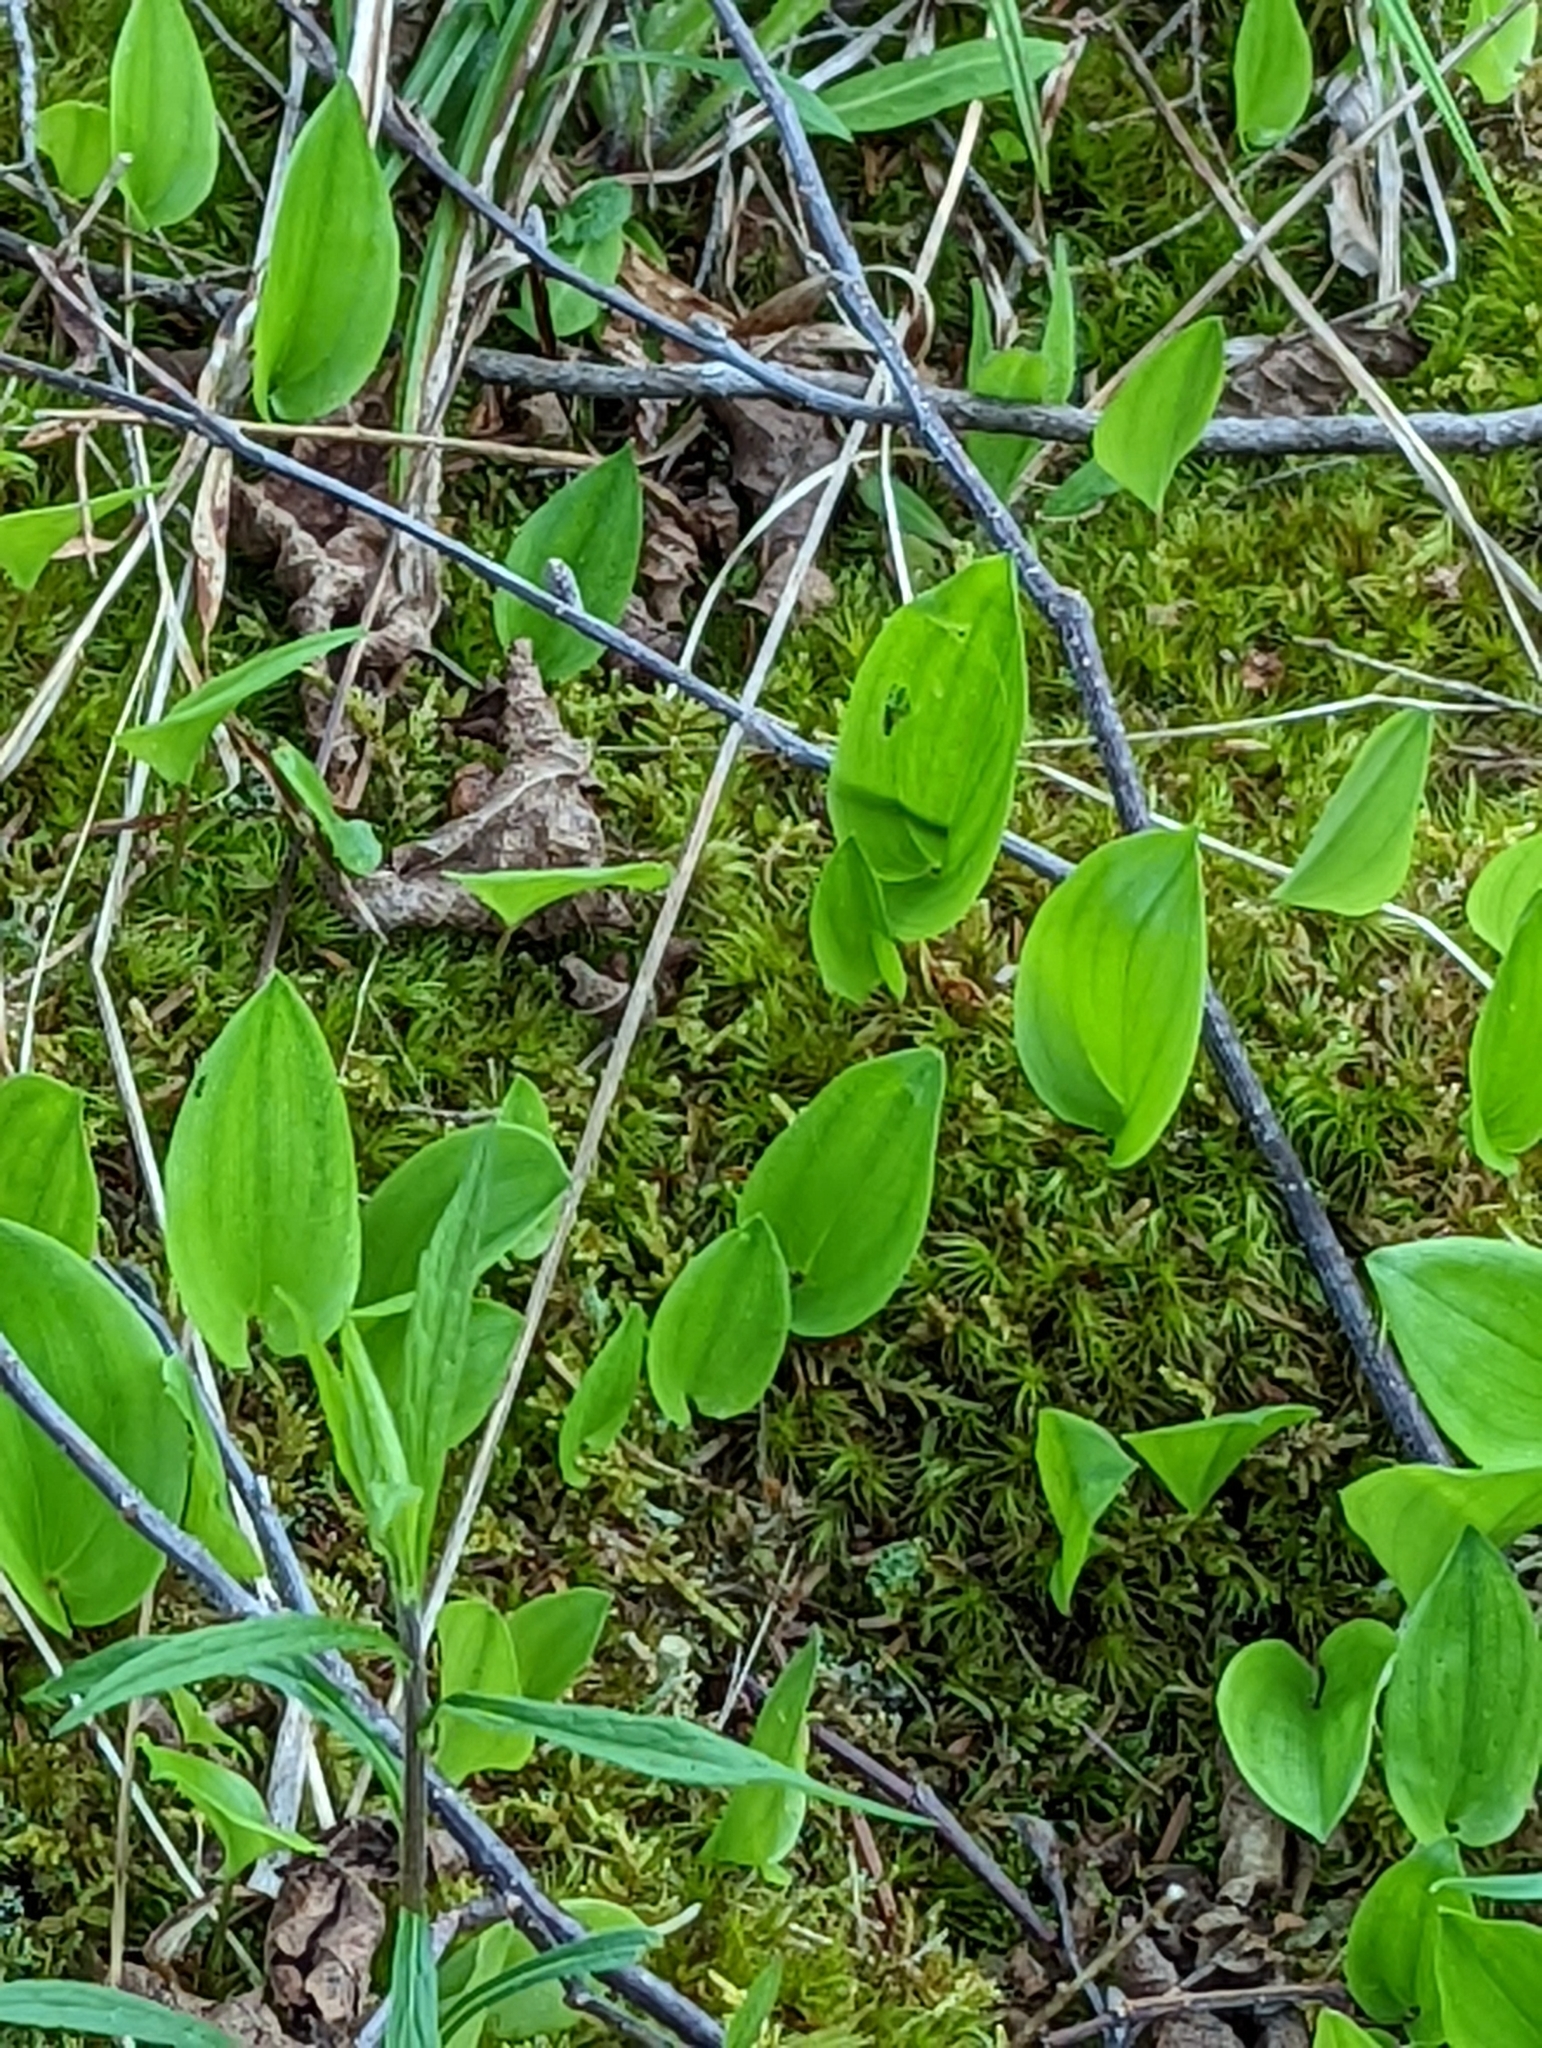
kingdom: Plantae
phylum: Tracheophyta
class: Liliopsida
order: Asparagales
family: Asparagaceae
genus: Maianthemum
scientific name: Maianthemum canadense
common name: False lily-of-the-valley
